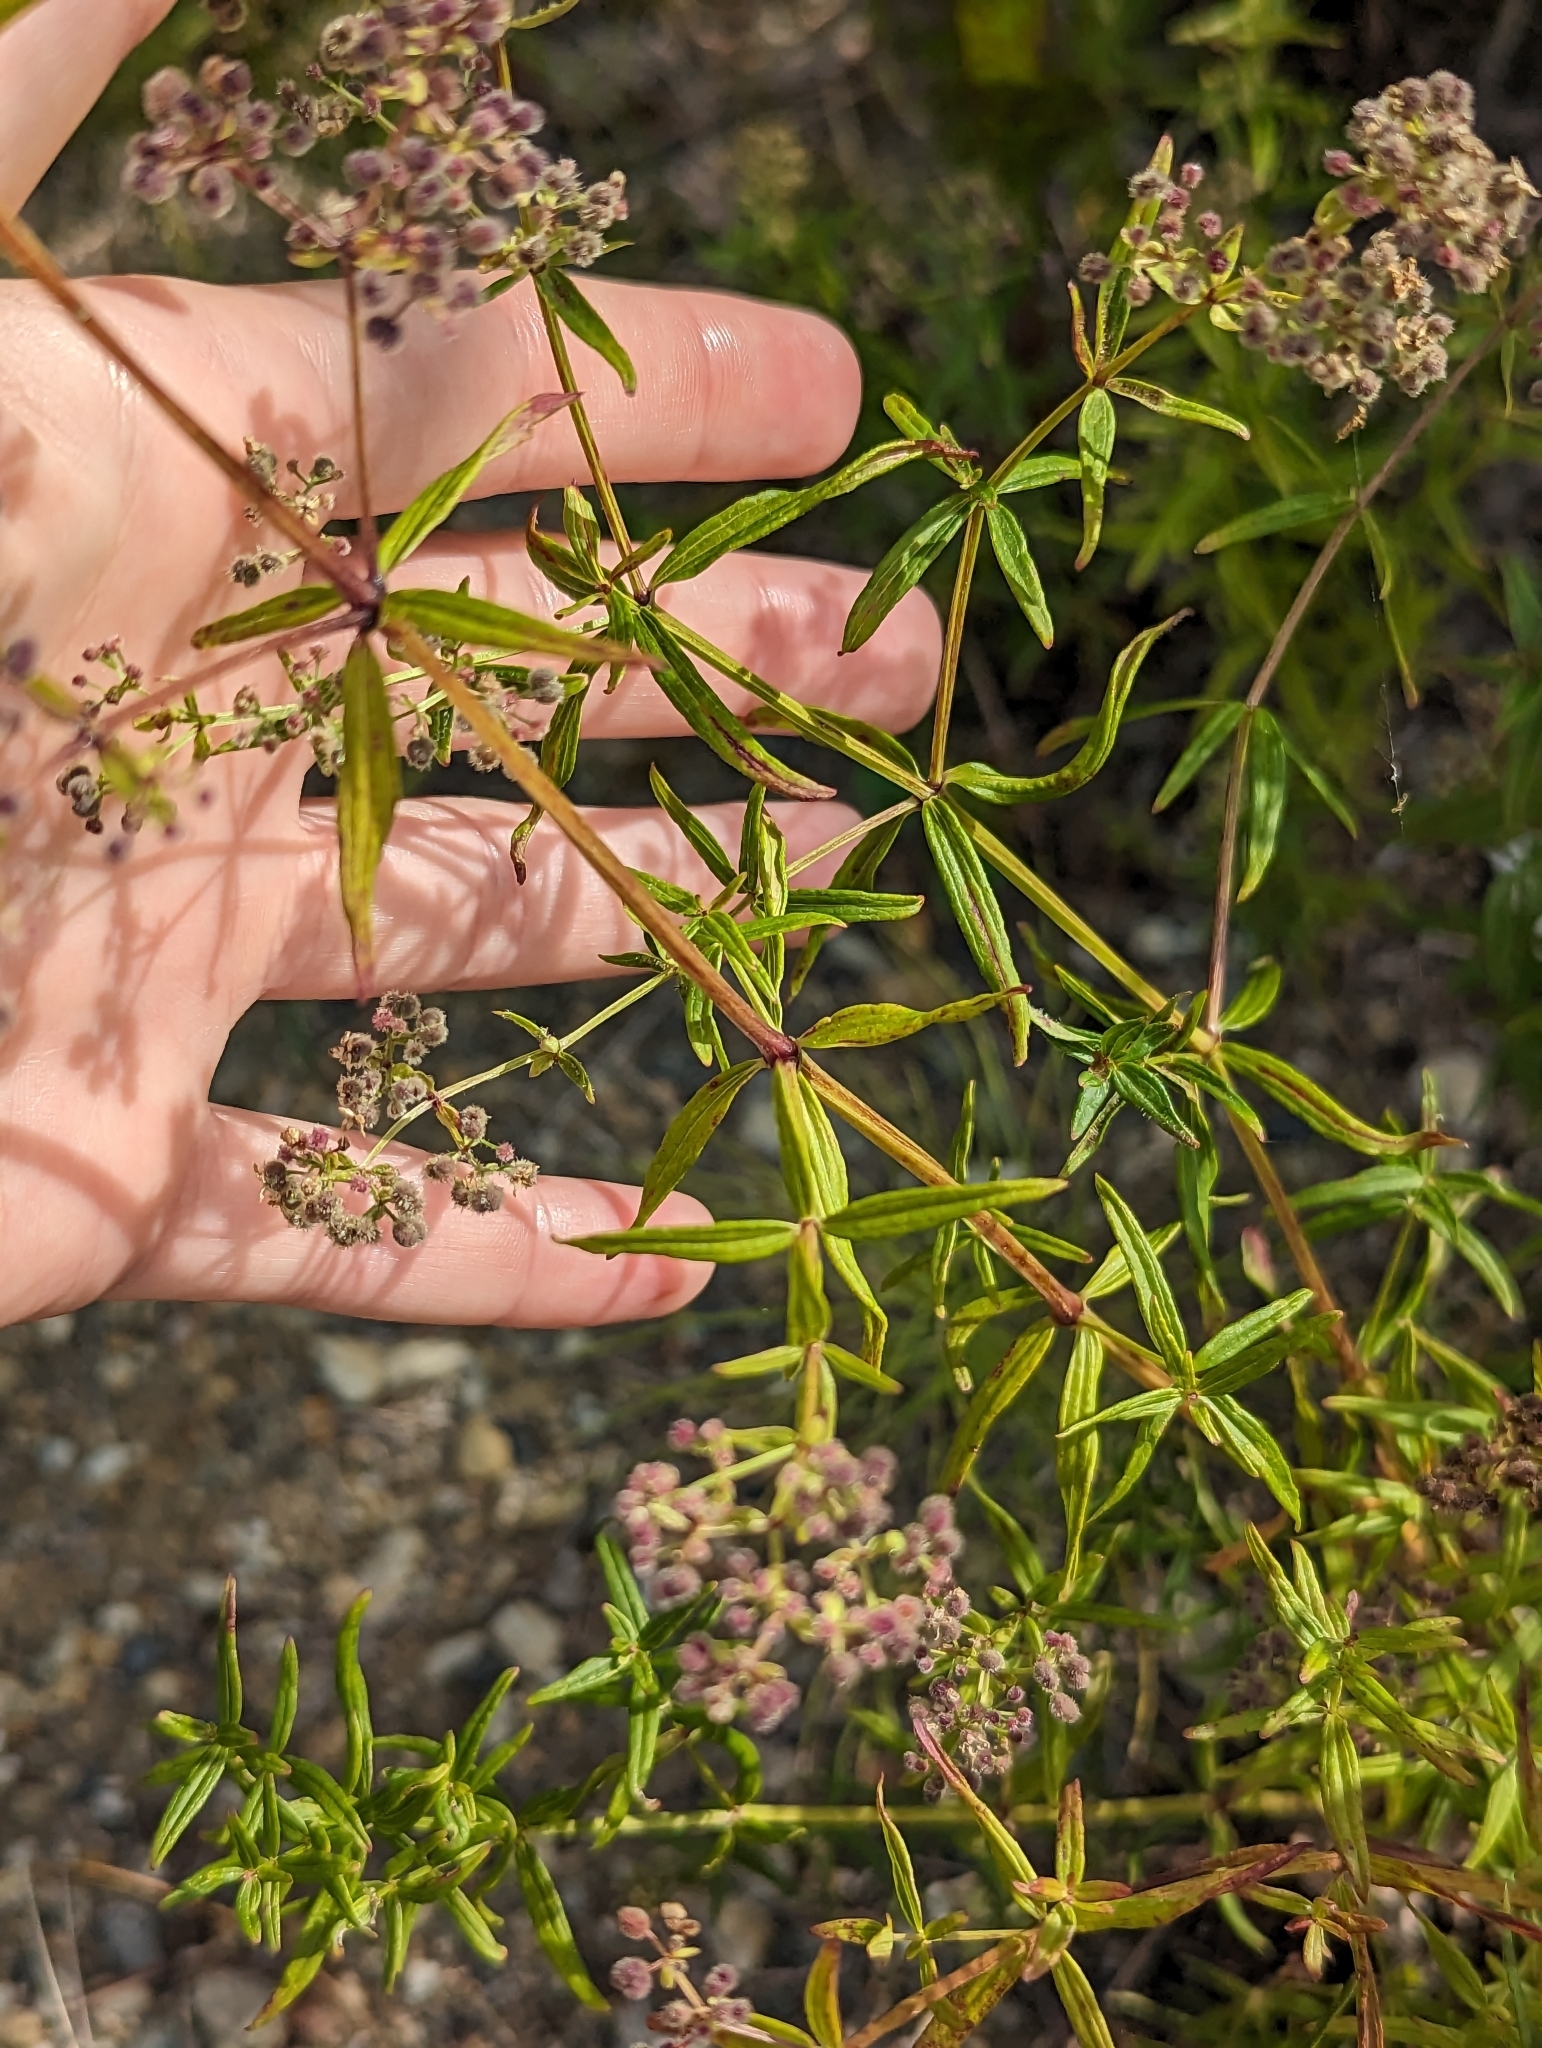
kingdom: Plantae
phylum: Tracheophyta
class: Magnoliopsida
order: Gentianales
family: Rubiaceae
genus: Galium
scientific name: Galium boreale
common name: Northern bedstraw
